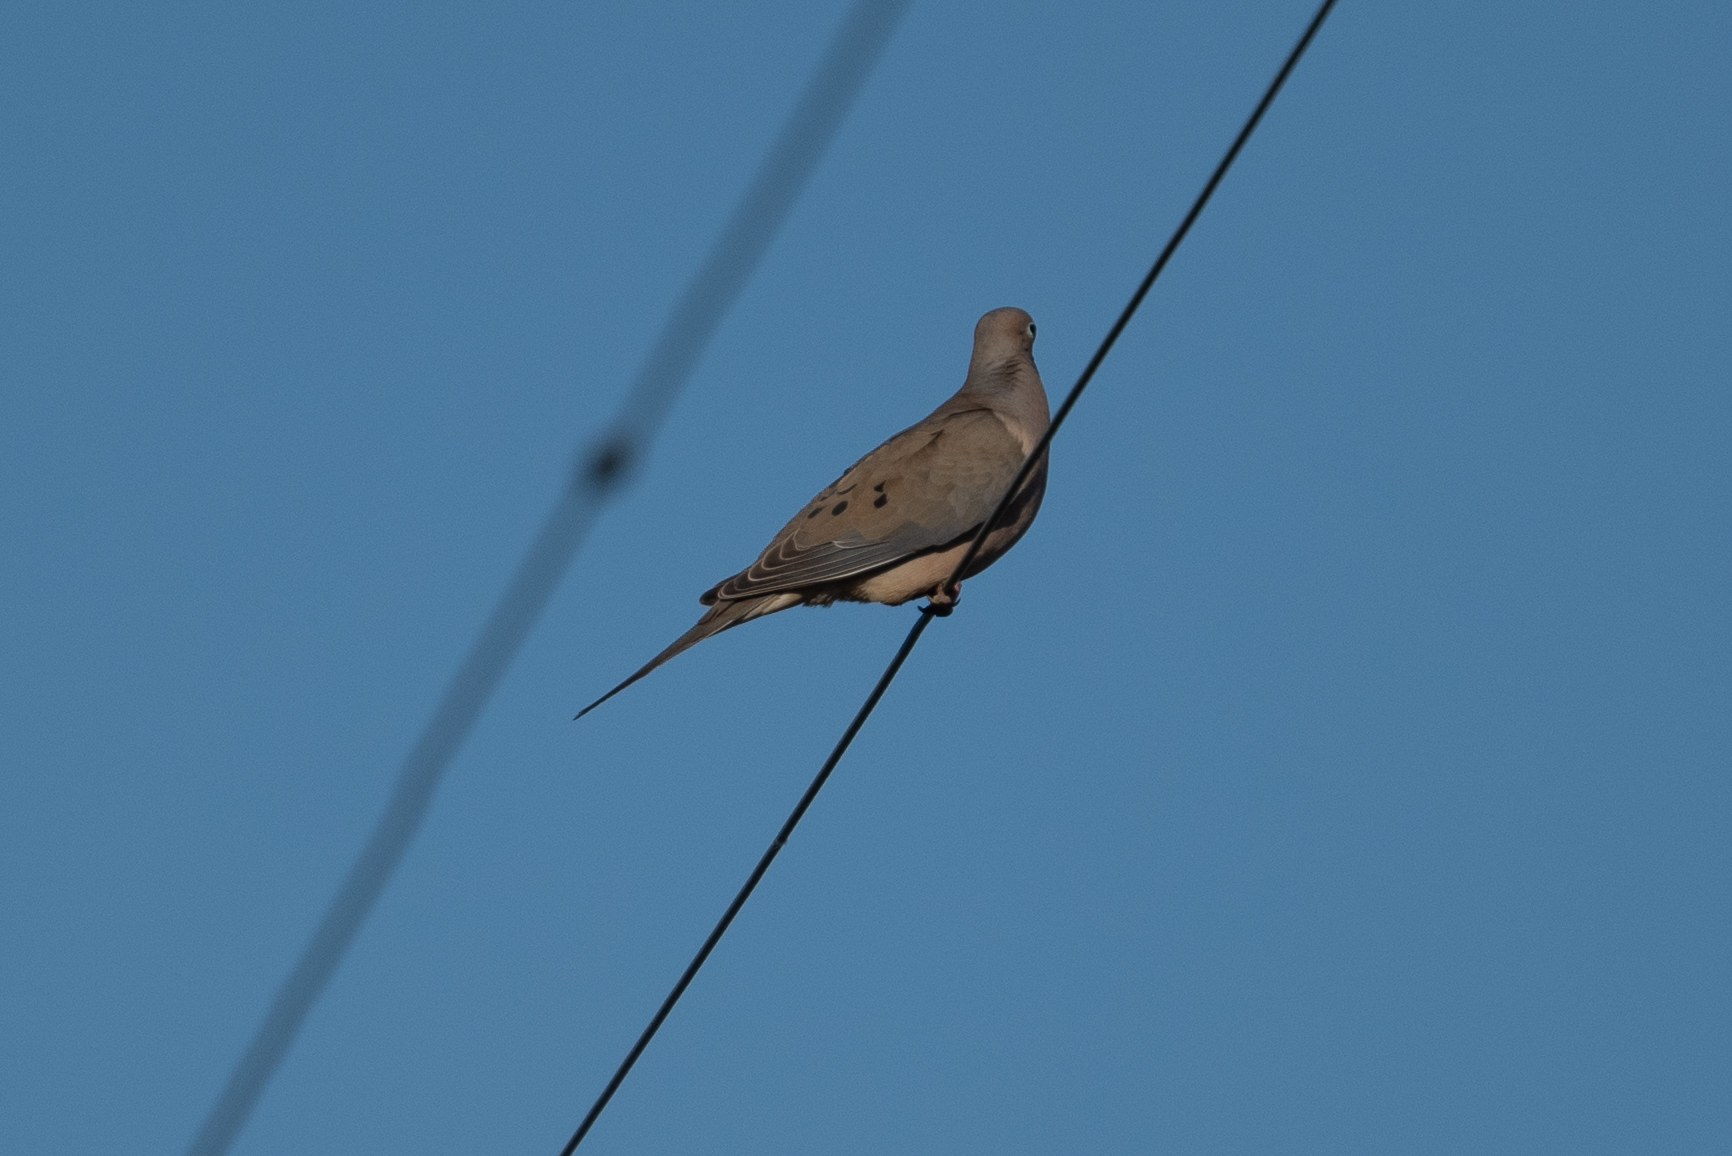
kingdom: Animalia
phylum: Chordata
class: Aves
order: Columbiformes
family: Columbidae
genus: Zenaida
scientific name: Zenaida macroura
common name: Mourning dove
